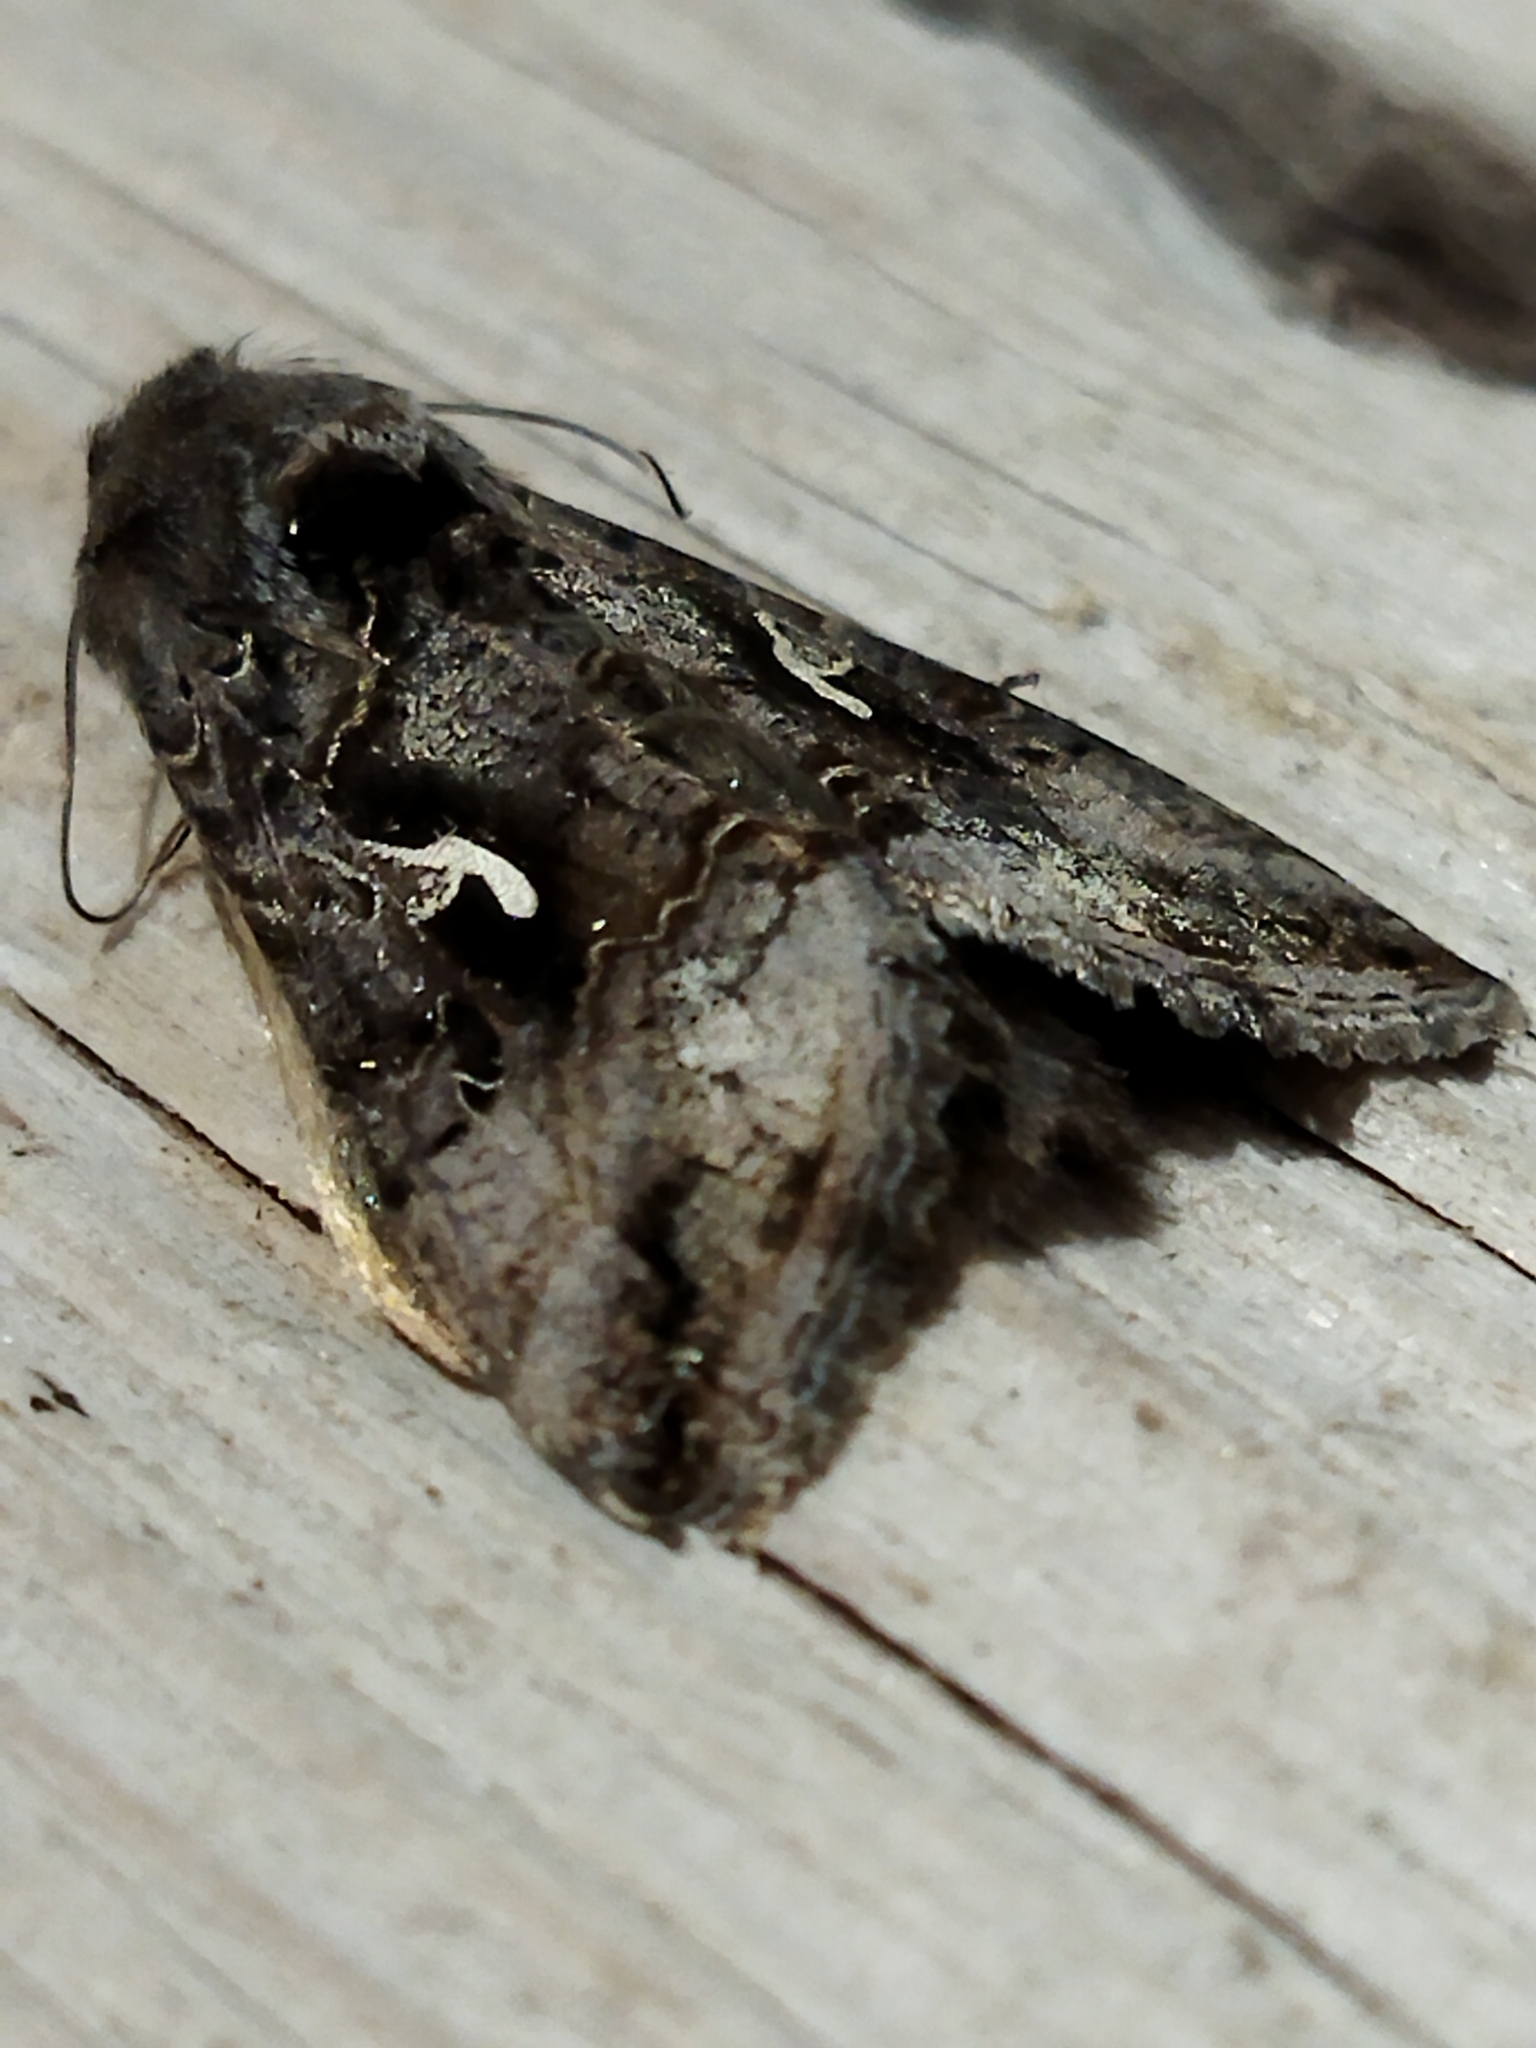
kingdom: Animalia
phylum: Arthropoda
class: Insecta
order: Lepidoptera
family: Noctuidae
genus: Autographa
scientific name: Autographa gamma
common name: Silver y
